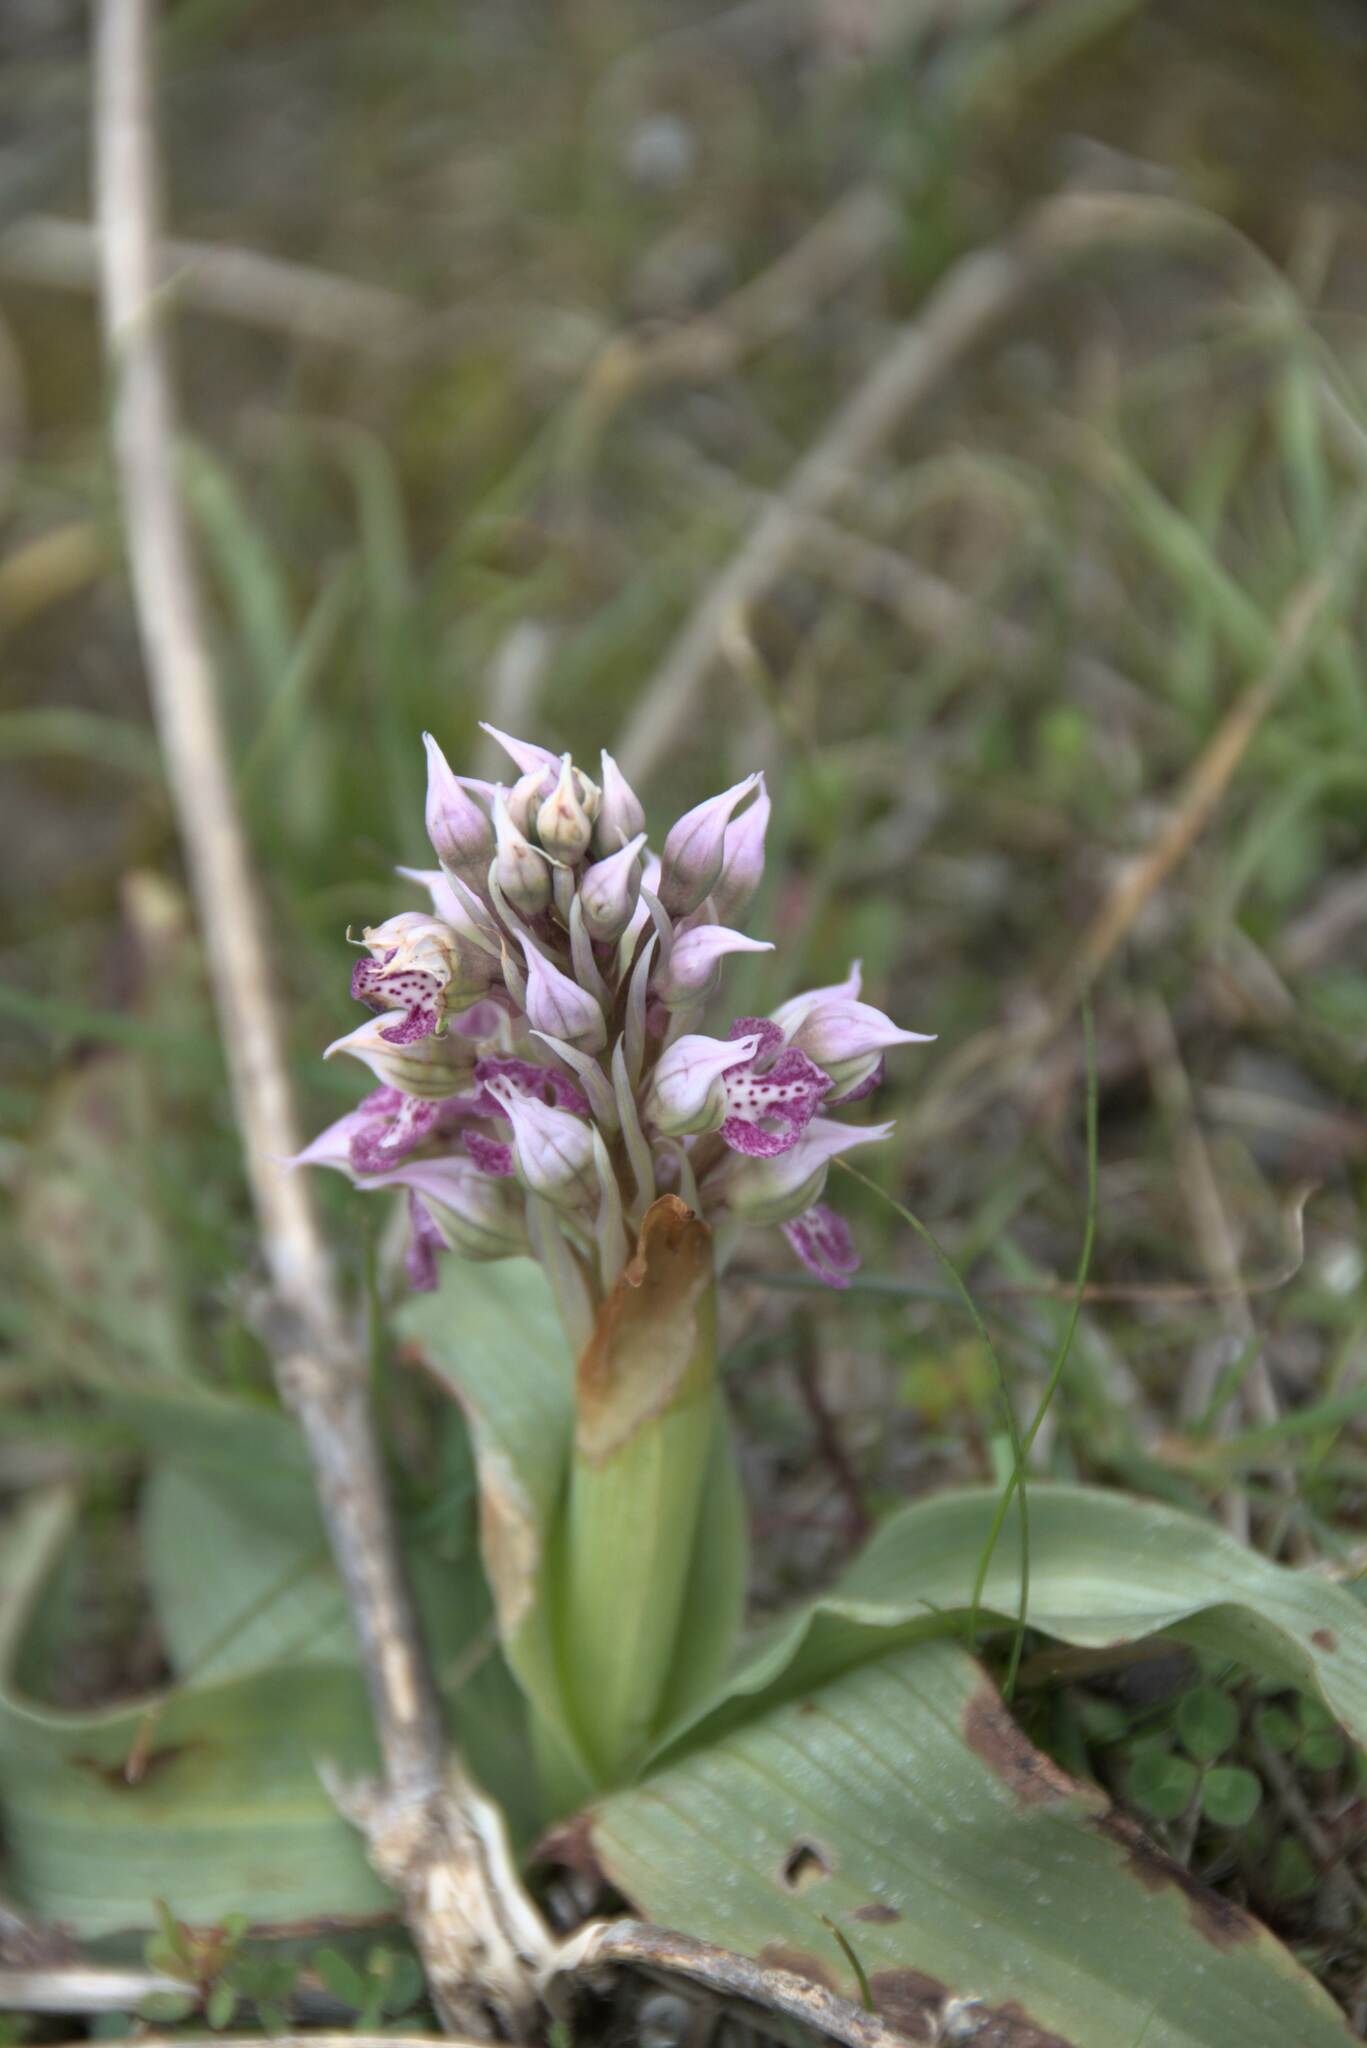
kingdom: Plantae
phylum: Tracheophyta
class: Liliopsida
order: Asparagales
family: Orchidaceae
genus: Neotinea
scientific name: Neotinea lactea
